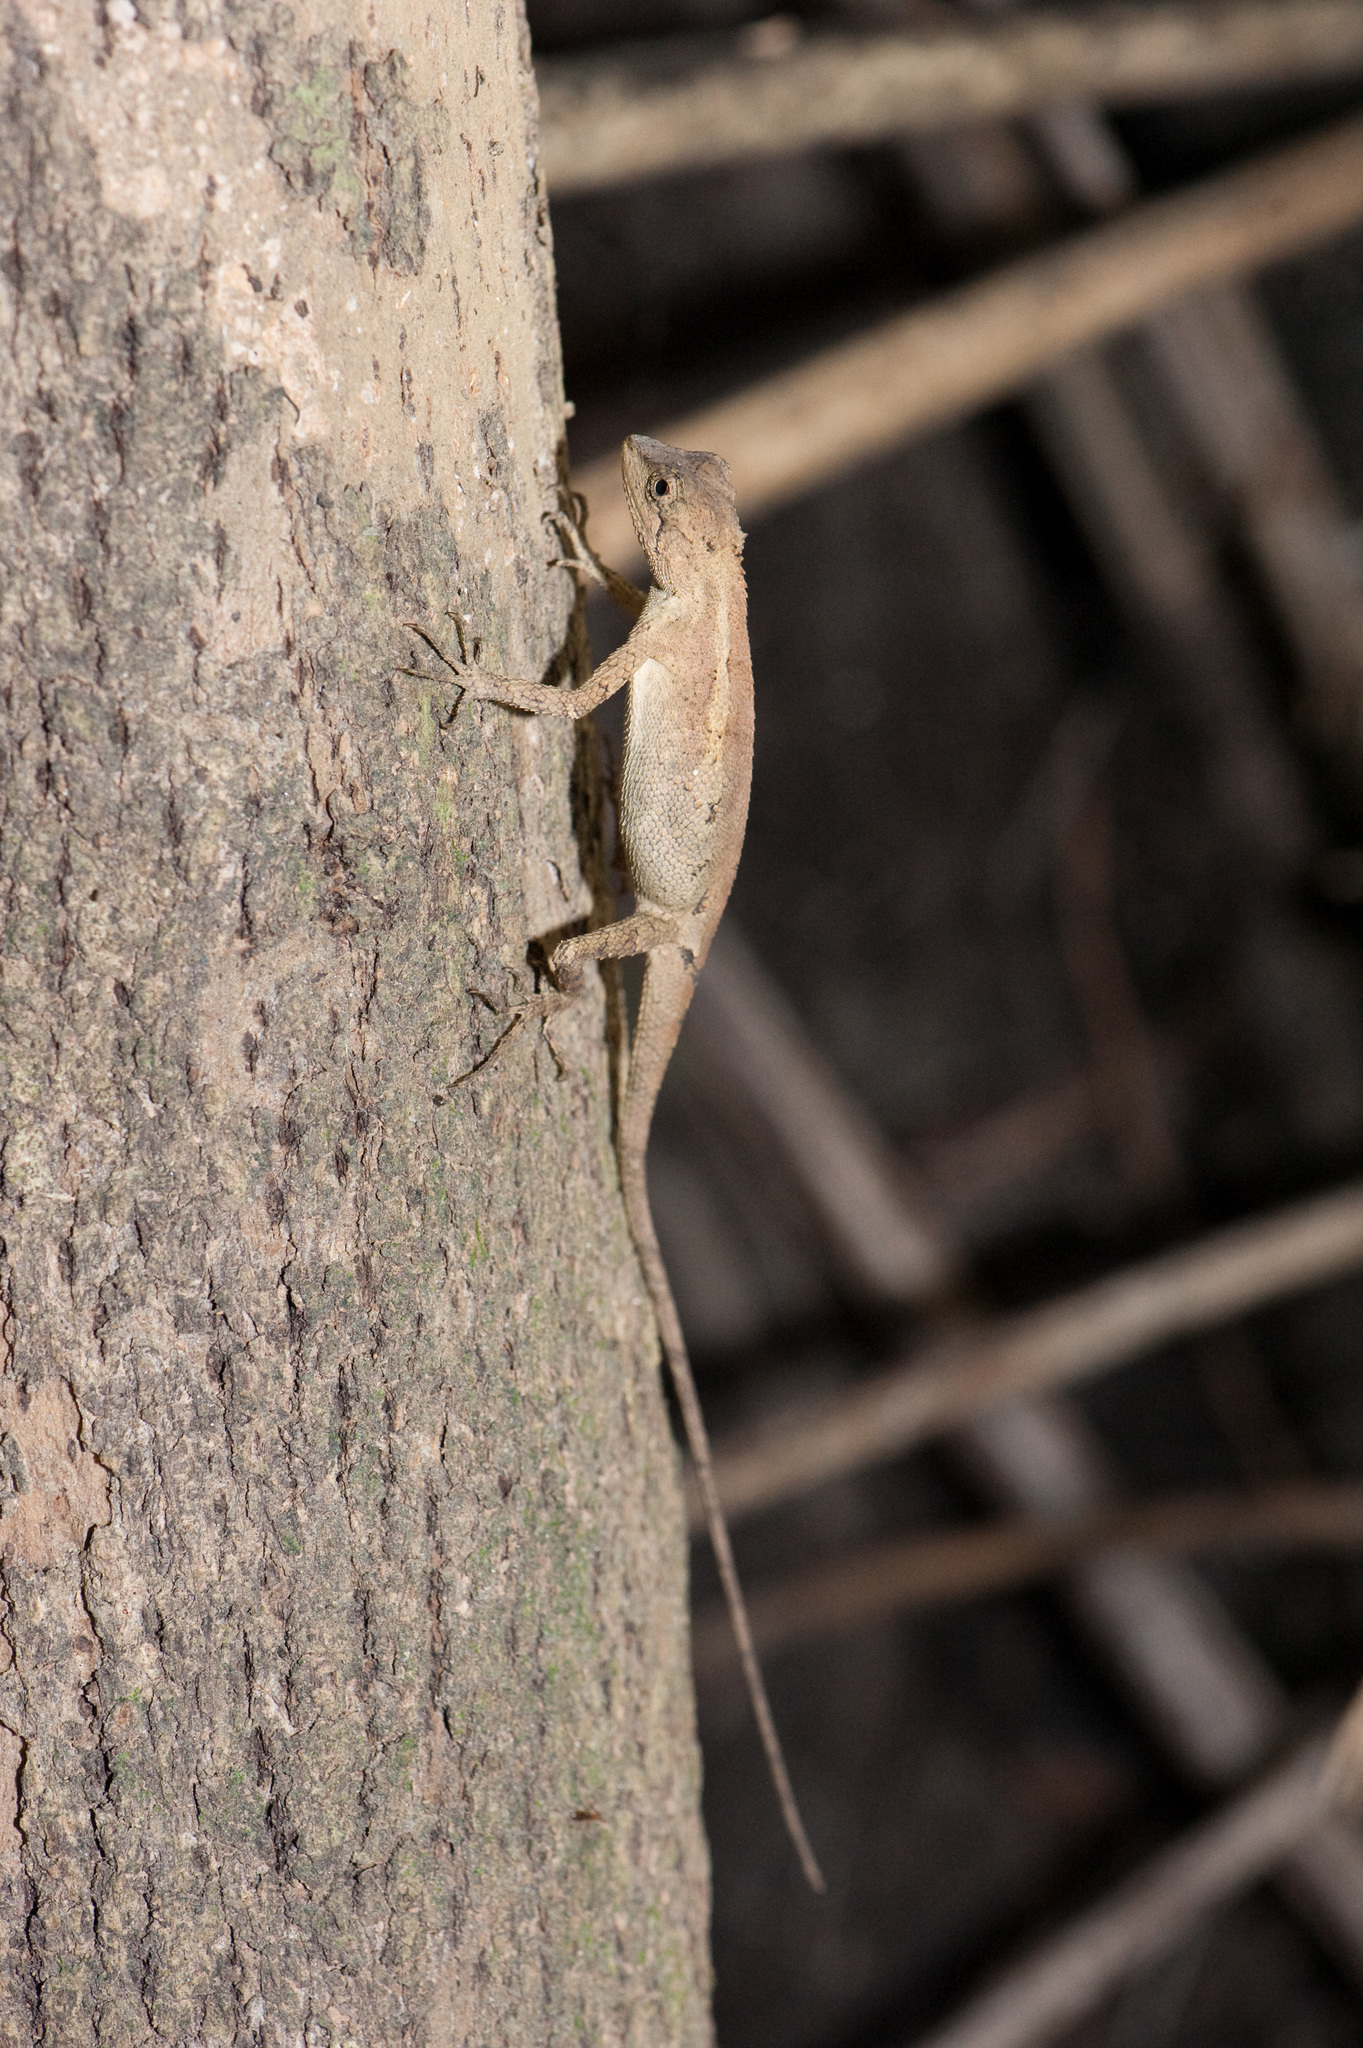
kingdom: Animalia
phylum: Chordata
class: Squamata
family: Agamidae
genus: Diploderma
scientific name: Diploderma swinhonis
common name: Taiwan japalure
